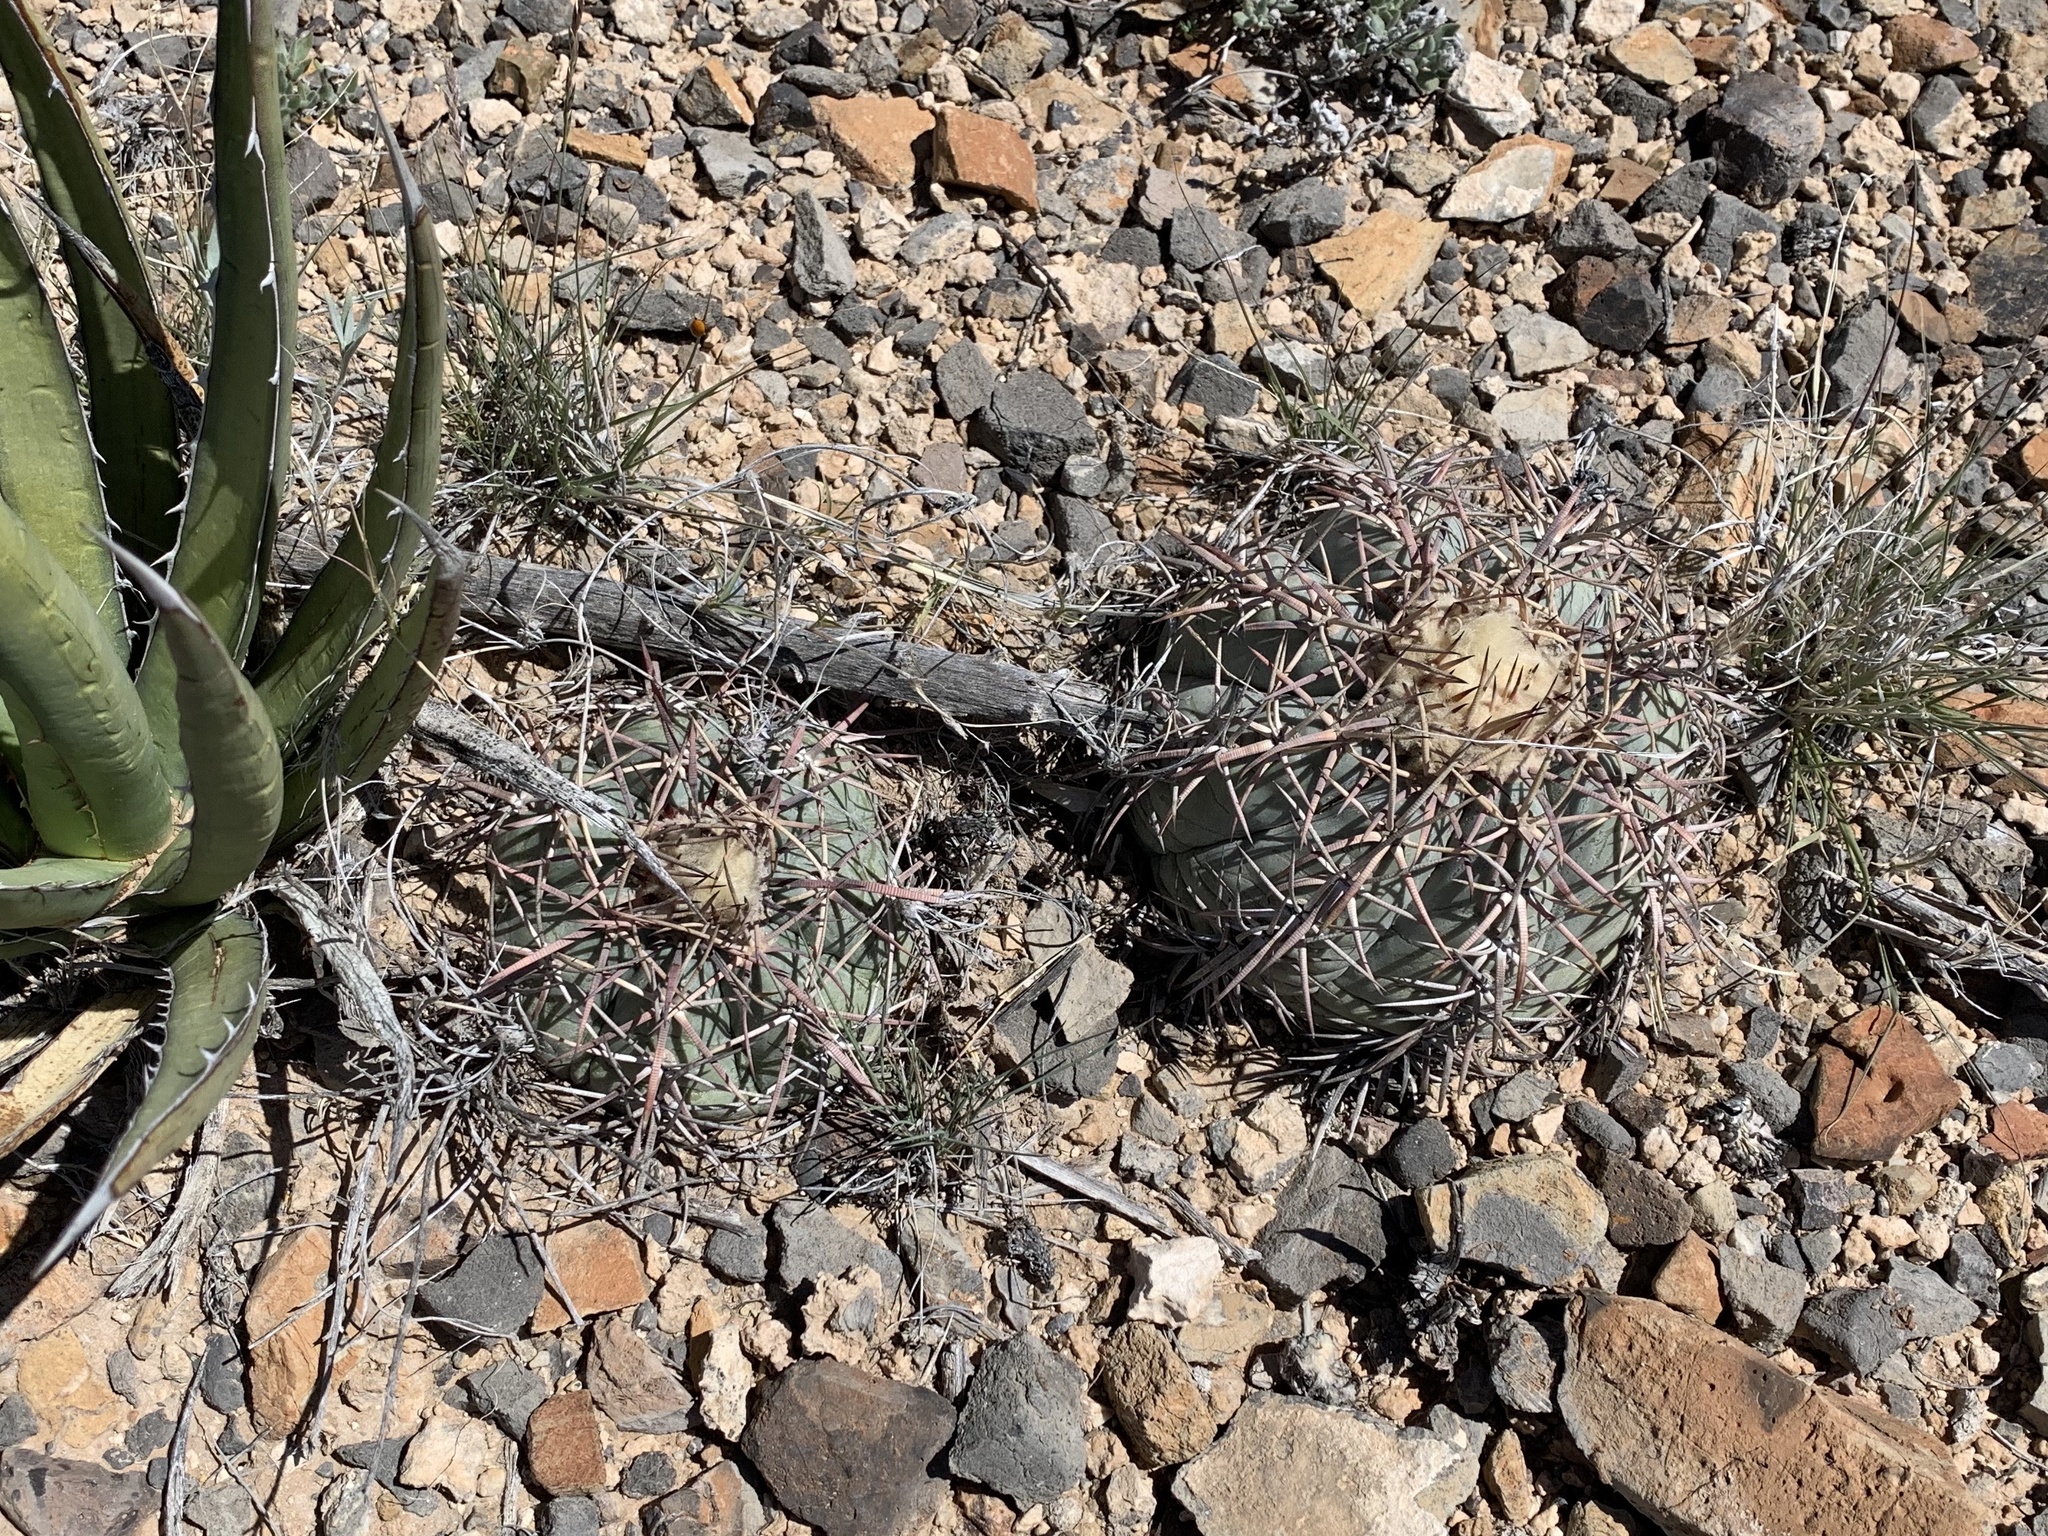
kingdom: Plantae
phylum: Tracheophyta
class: Magnoliopsida
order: Caryophyllales
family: Cactaceae
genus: Echinocactus
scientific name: Echinocactus horizonthalonius
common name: Devilshead
